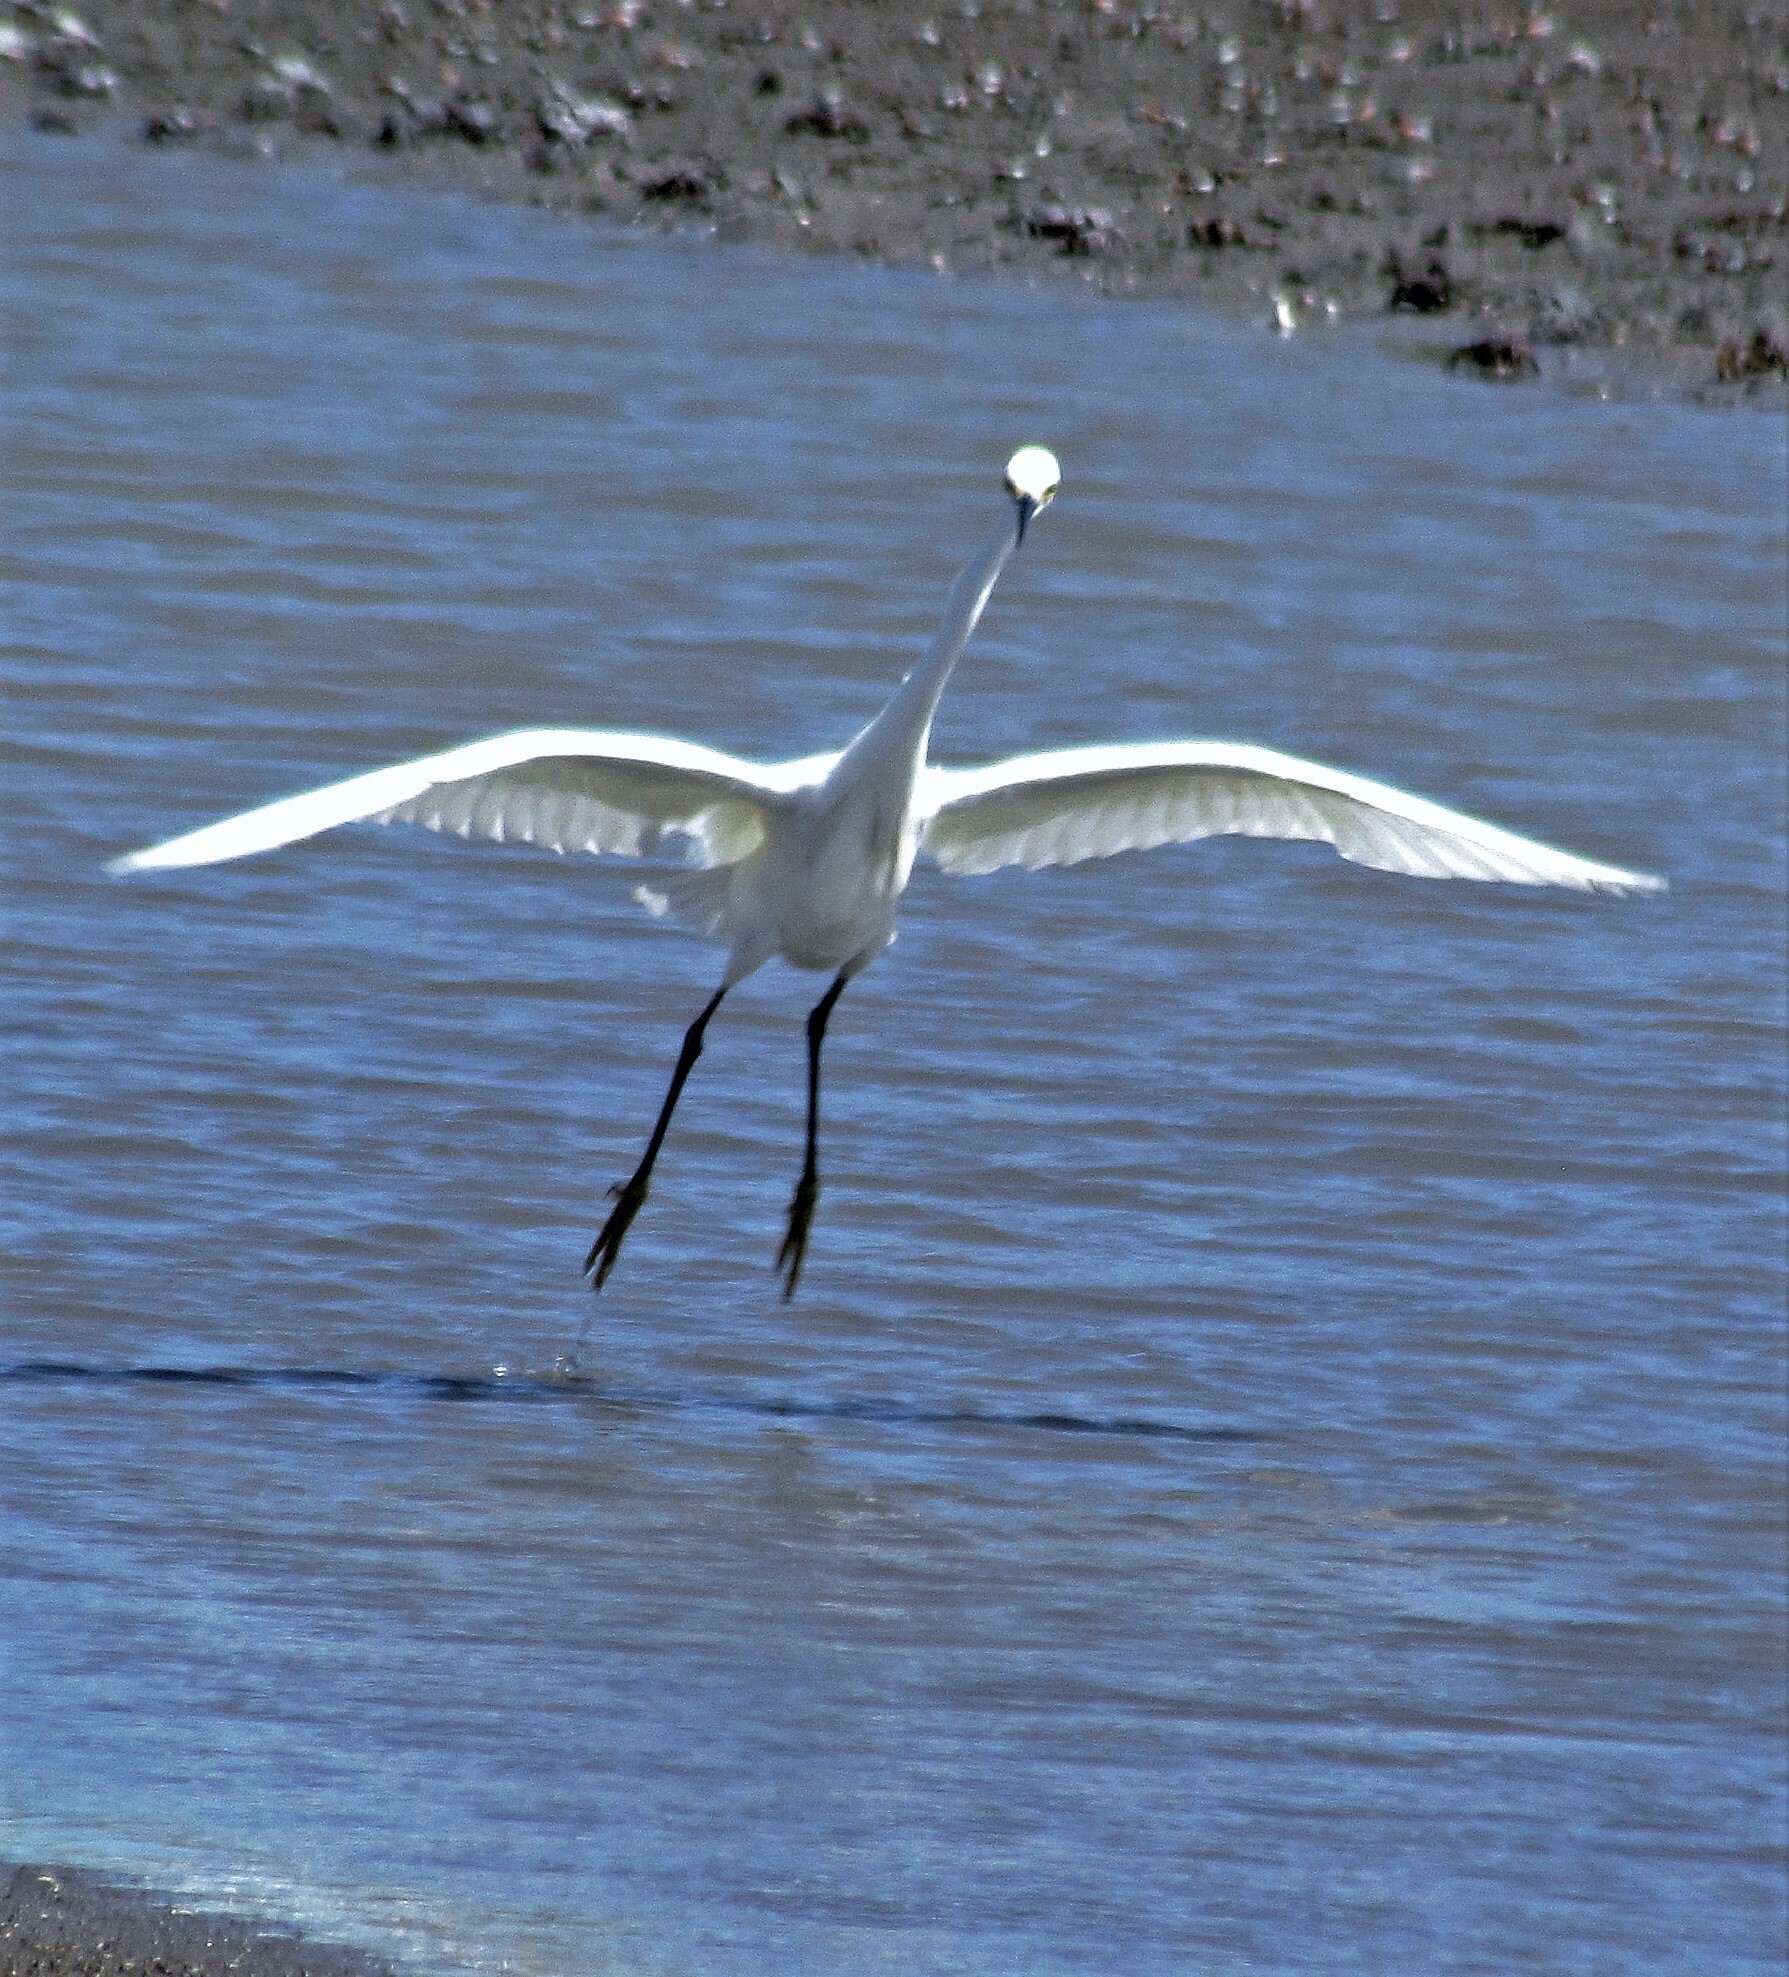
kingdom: Animalia
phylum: Chordata
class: Aves
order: Pelecaniformes
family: Ardeidae
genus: Egretta
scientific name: Egretta thula
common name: Snowy egret
